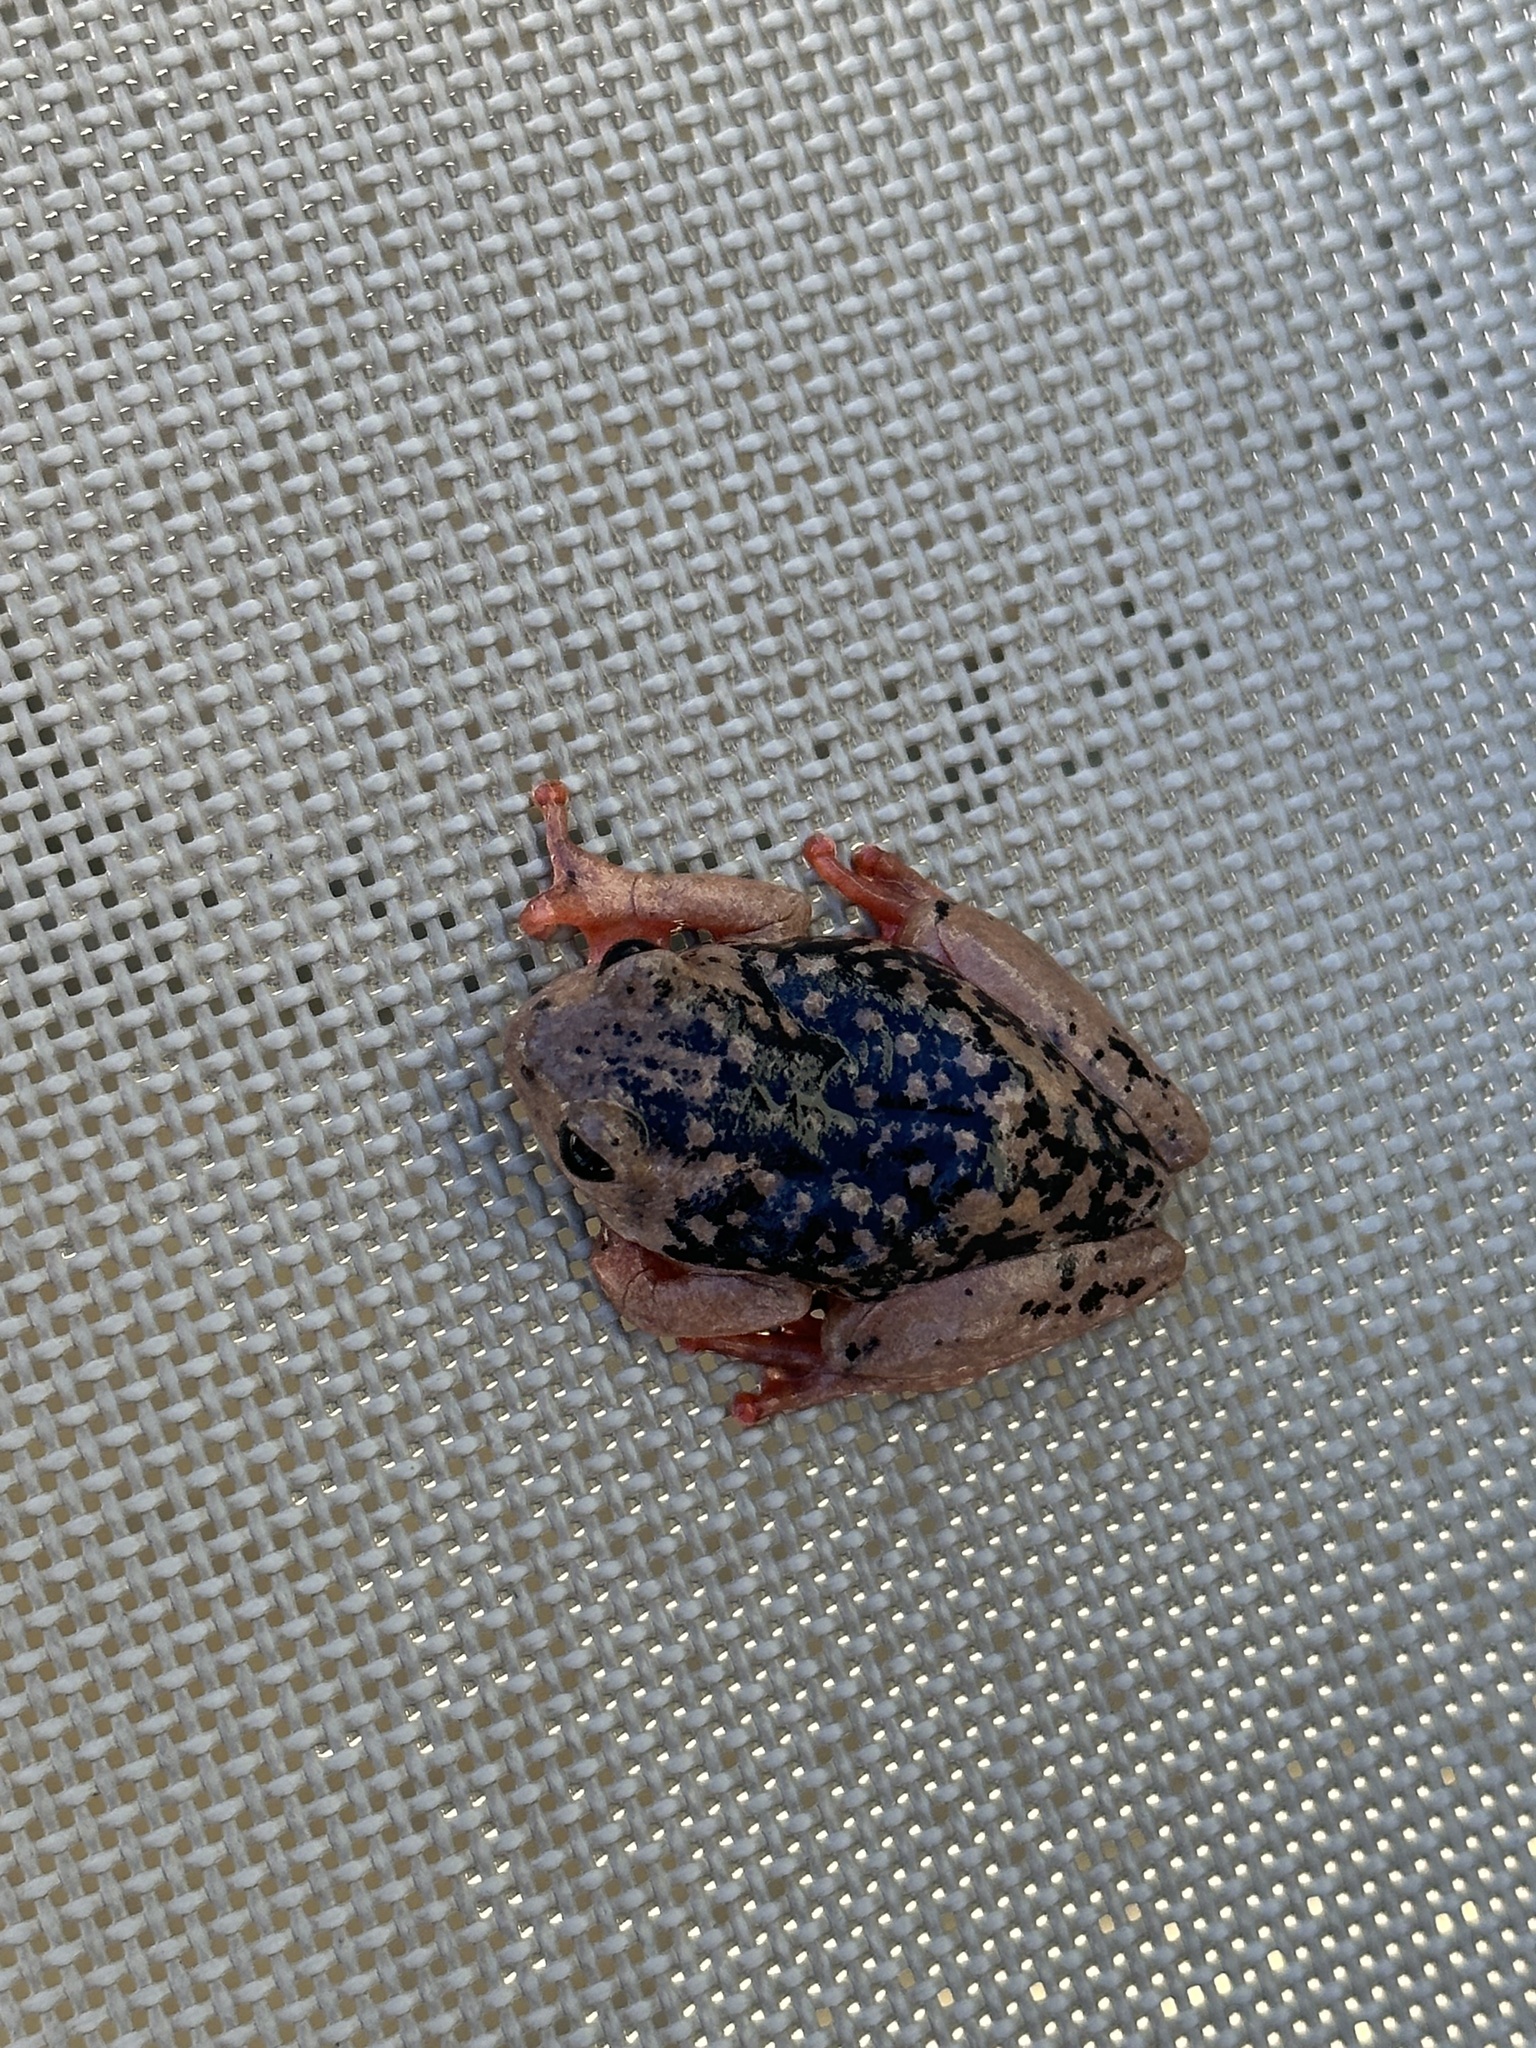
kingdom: Animalia
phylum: Chordata
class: Amphibia
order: Anura
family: Hyperoliidae
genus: Hyperolius
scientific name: Hyperolius glandicolor
